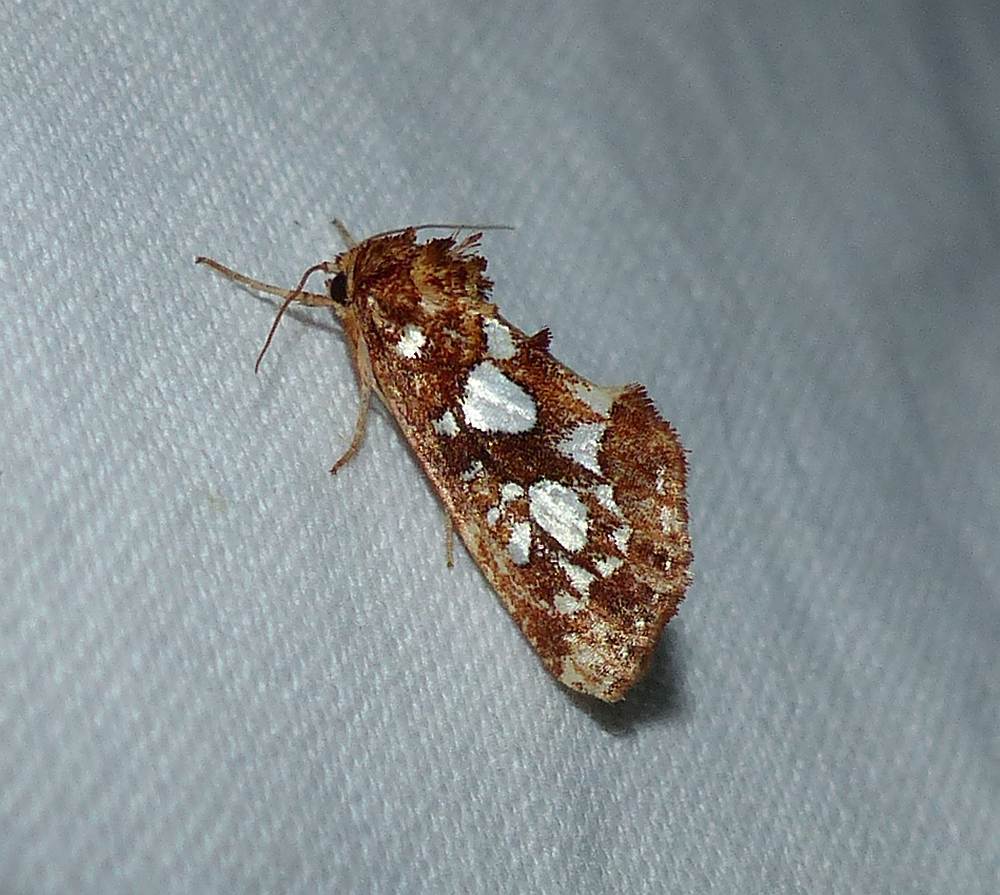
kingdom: Animalia
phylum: Arthropoda
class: Insecta
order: Lepidoptera
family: Noctuidae
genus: Callopistria
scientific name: Callopistria cordata
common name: Silver-spotted fern moth
